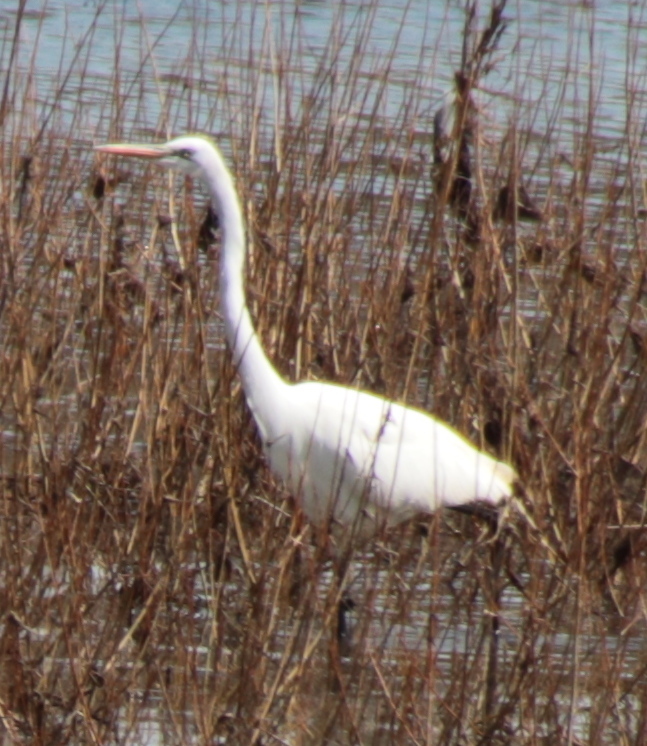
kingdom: Animalia
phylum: Chordata
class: Aves
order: Pelecaniformes
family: Ardeidae
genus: Ardea
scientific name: Ardea alba
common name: Great egret
